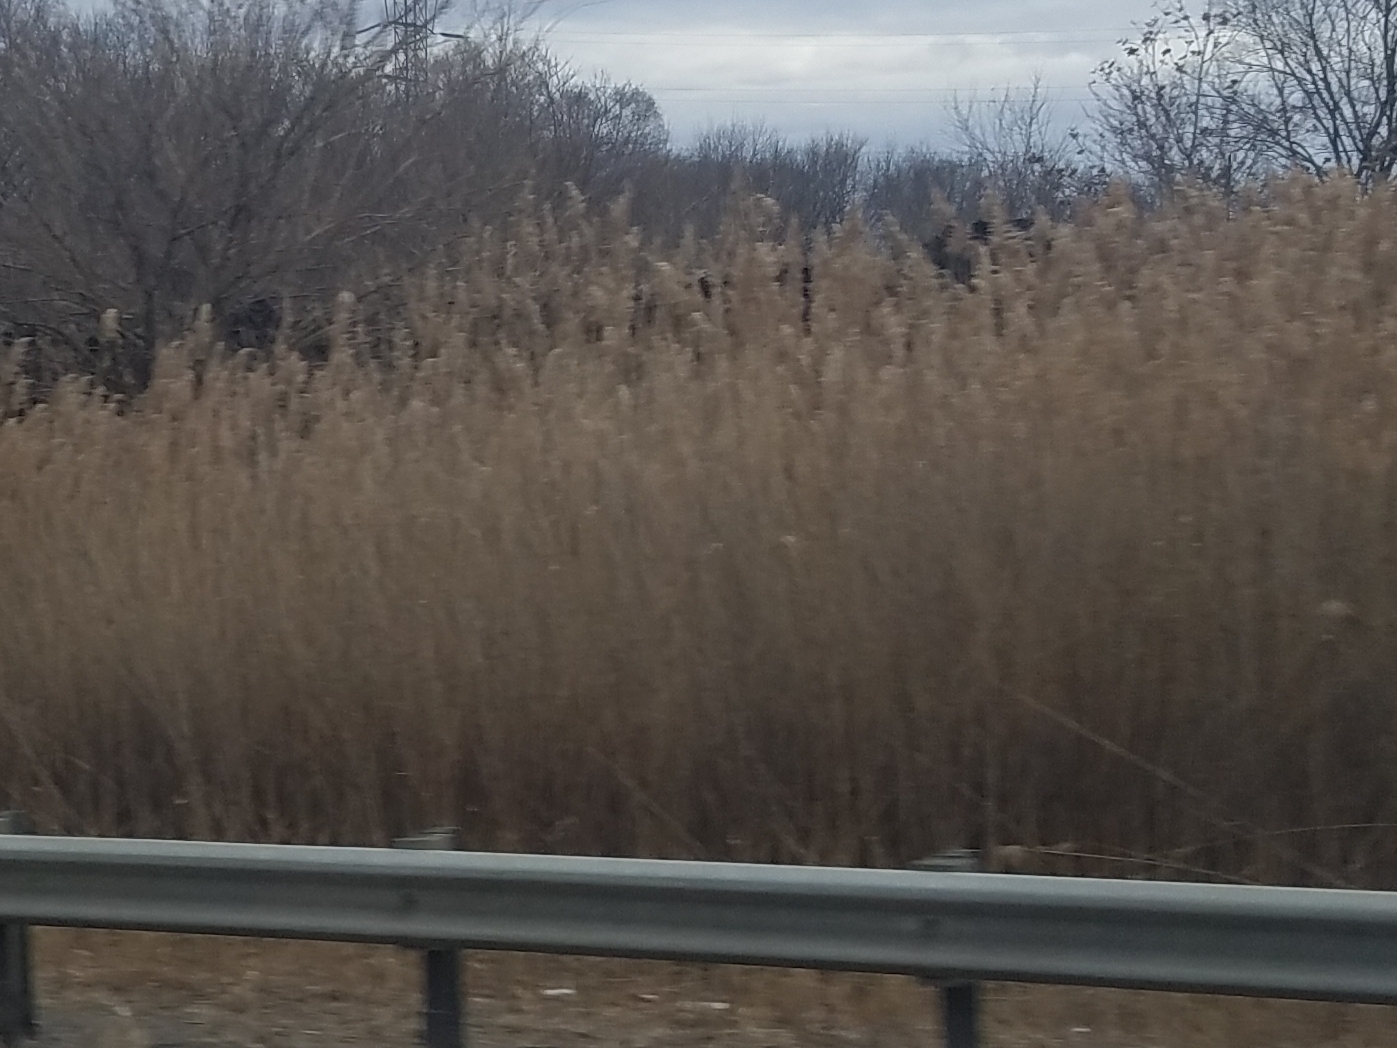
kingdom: Plantae
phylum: Tracheophyta
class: Liliopsida
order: Poales
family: Poaceae
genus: Phragmites
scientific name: Phragmites australis
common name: Common reed
